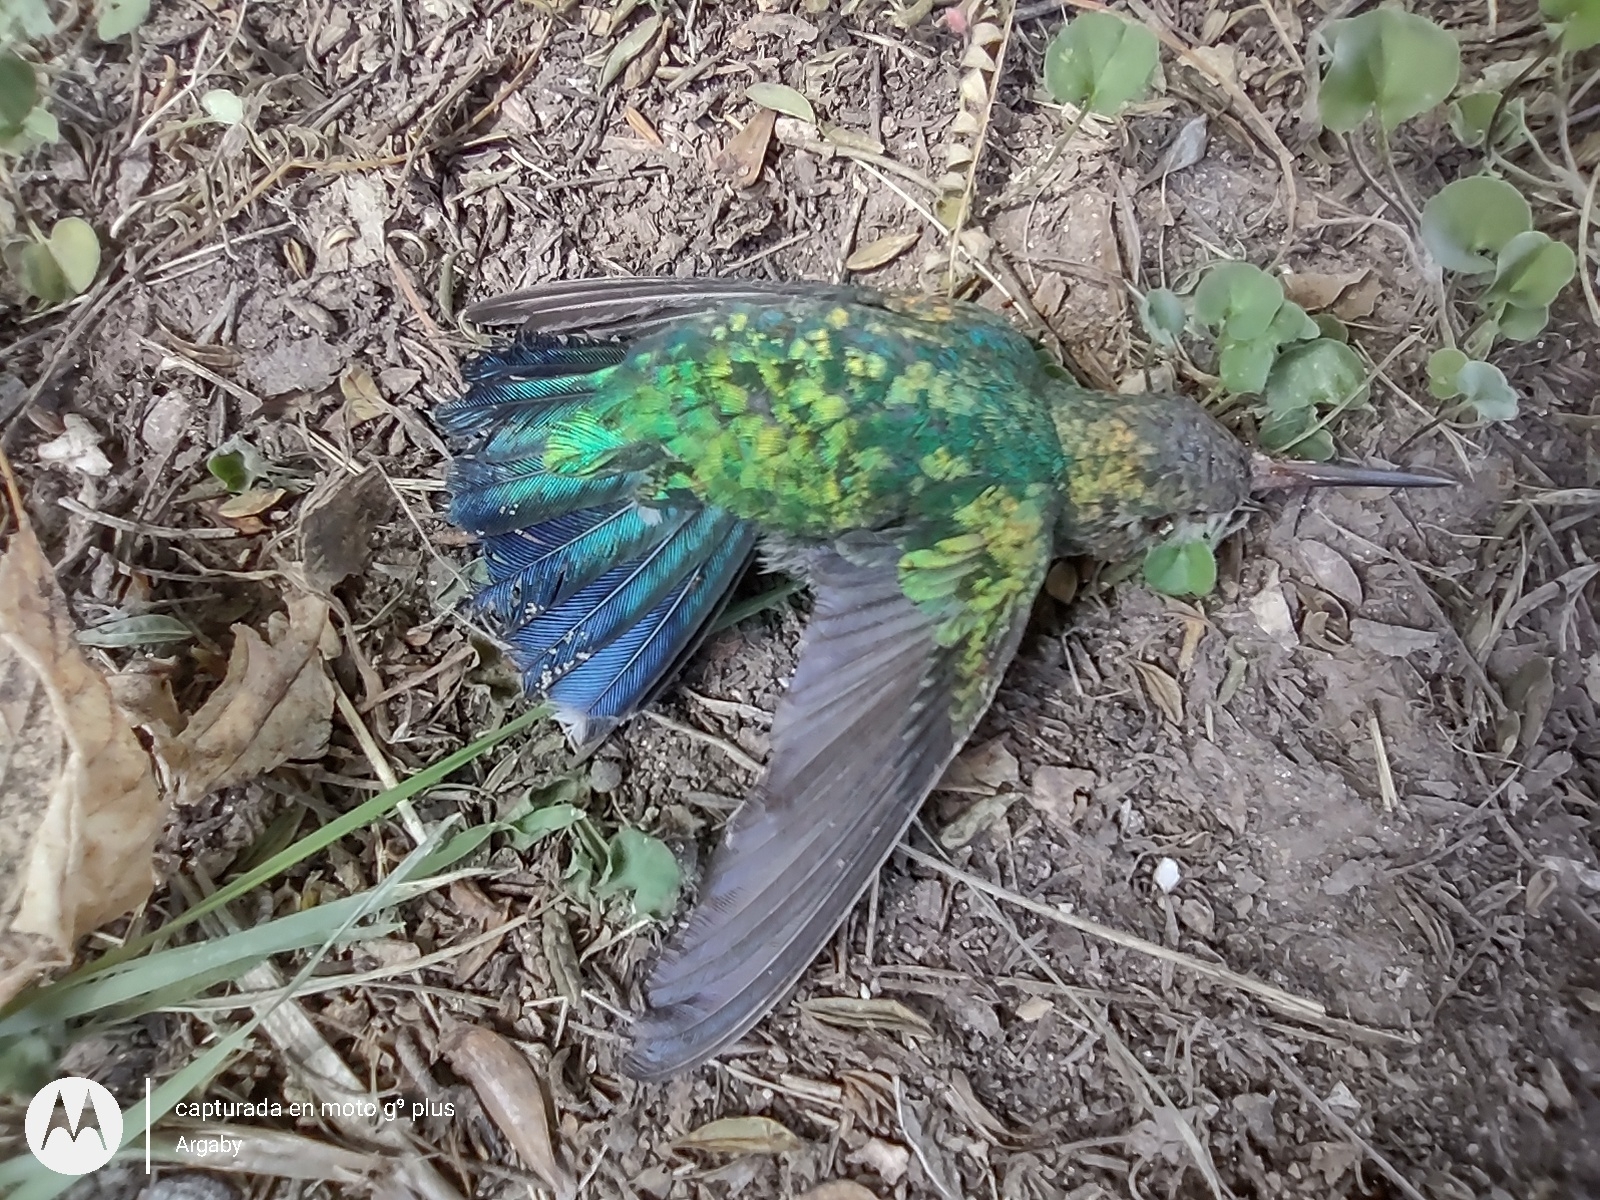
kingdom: Animalia
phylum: Chordata
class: Aves
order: Apodiformes
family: Trochilidae
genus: Chlorostilbon
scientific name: Chlorostilbon lucidus
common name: Glittering-bellied emerald
